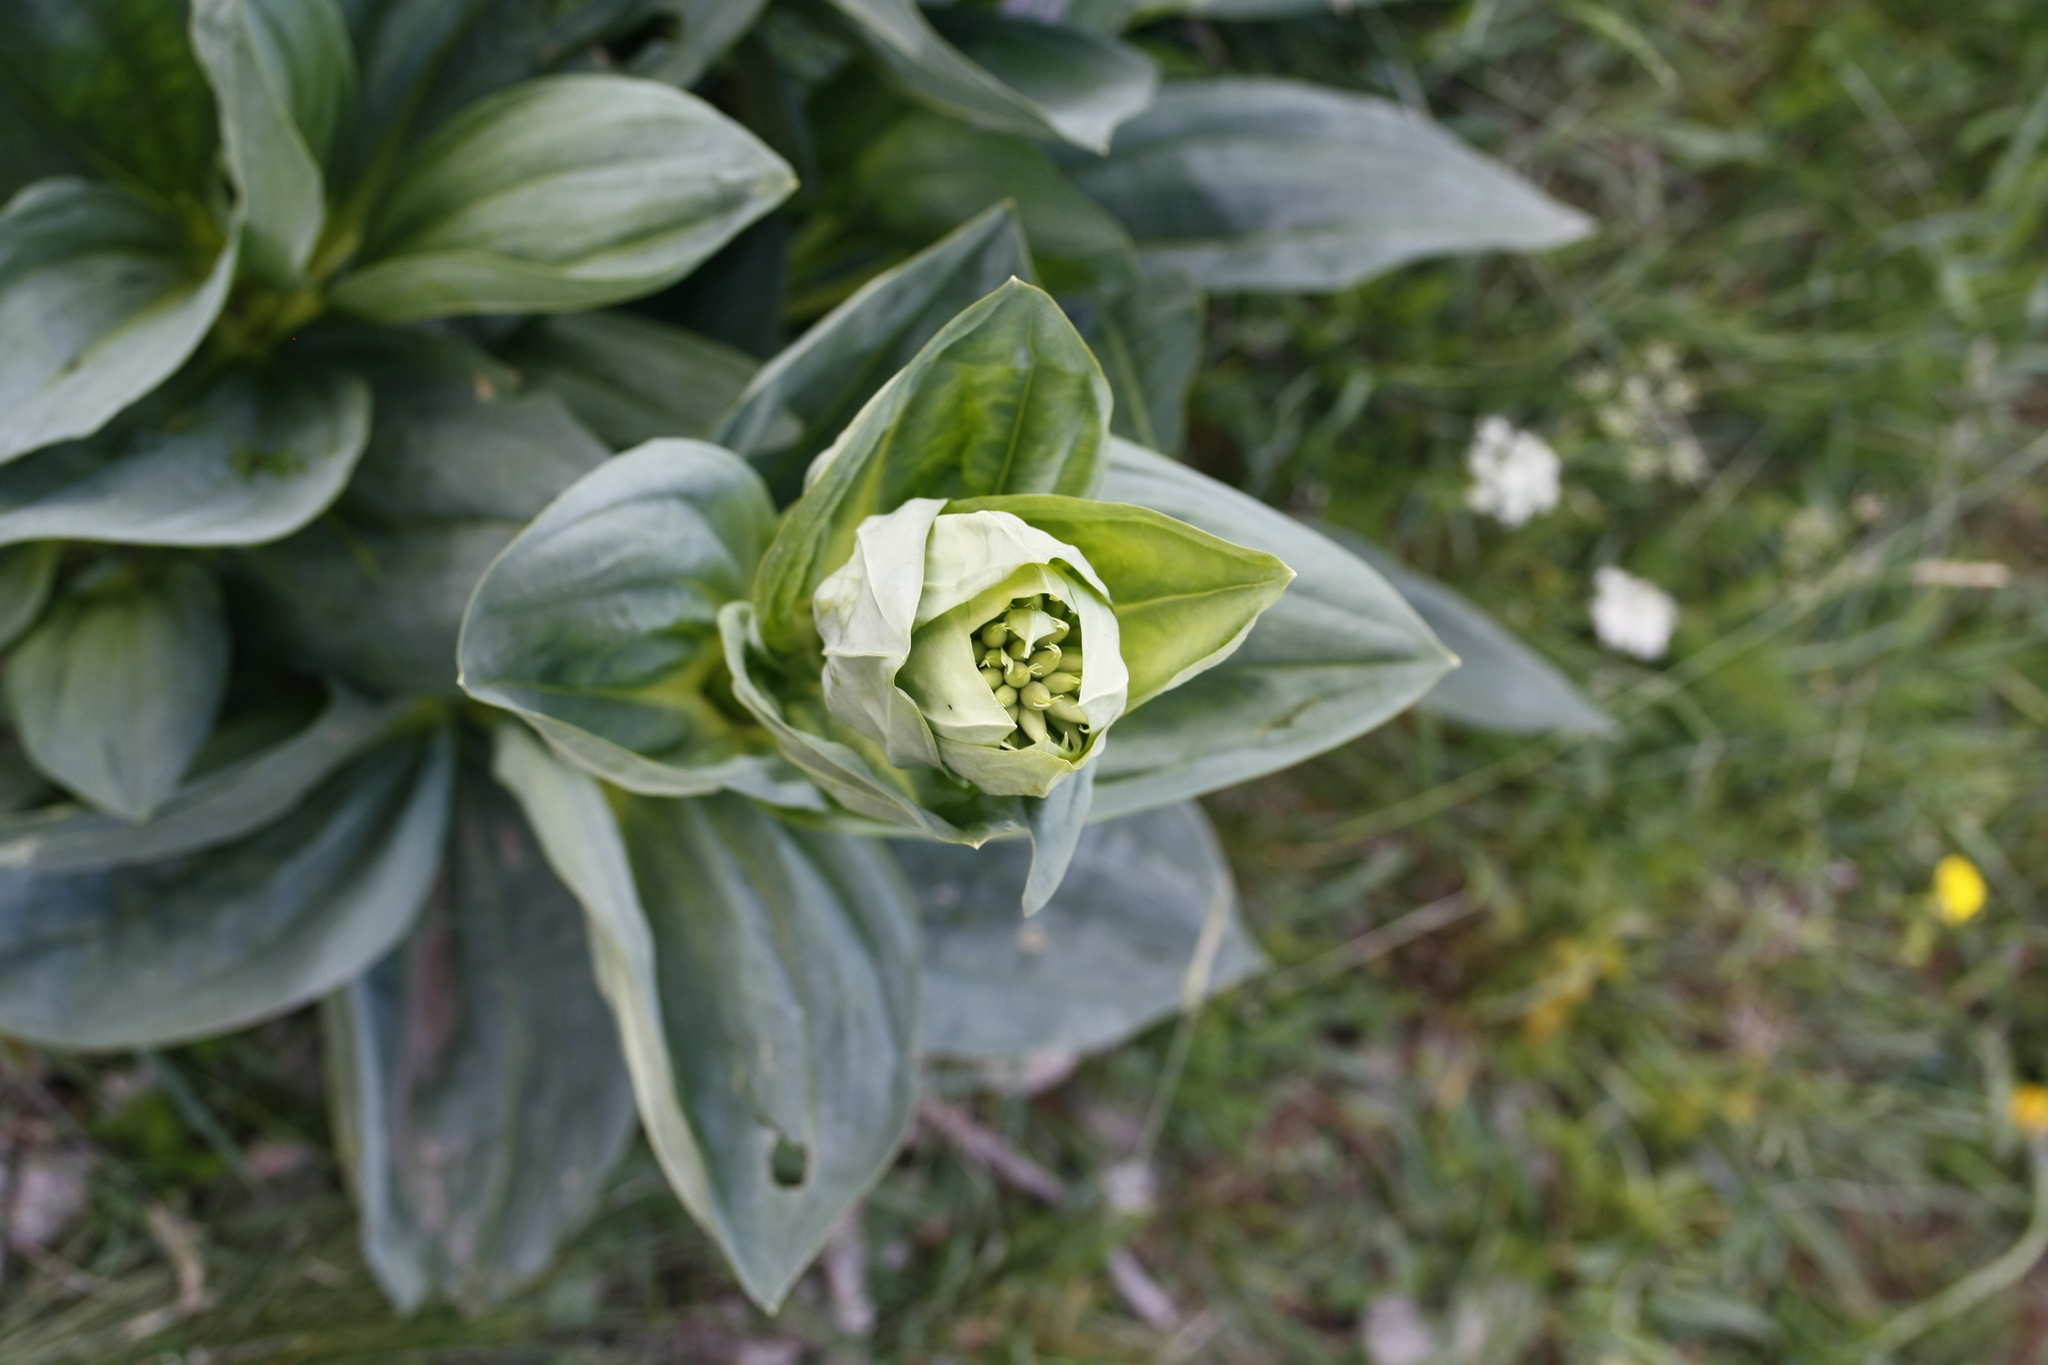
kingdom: Plantae
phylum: Tracheophyta
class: Magnoliopsida
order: Gentianales
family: Gentianaceae
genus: Gentiana
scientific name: Gentiana lutea
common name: Great yellow gentian
